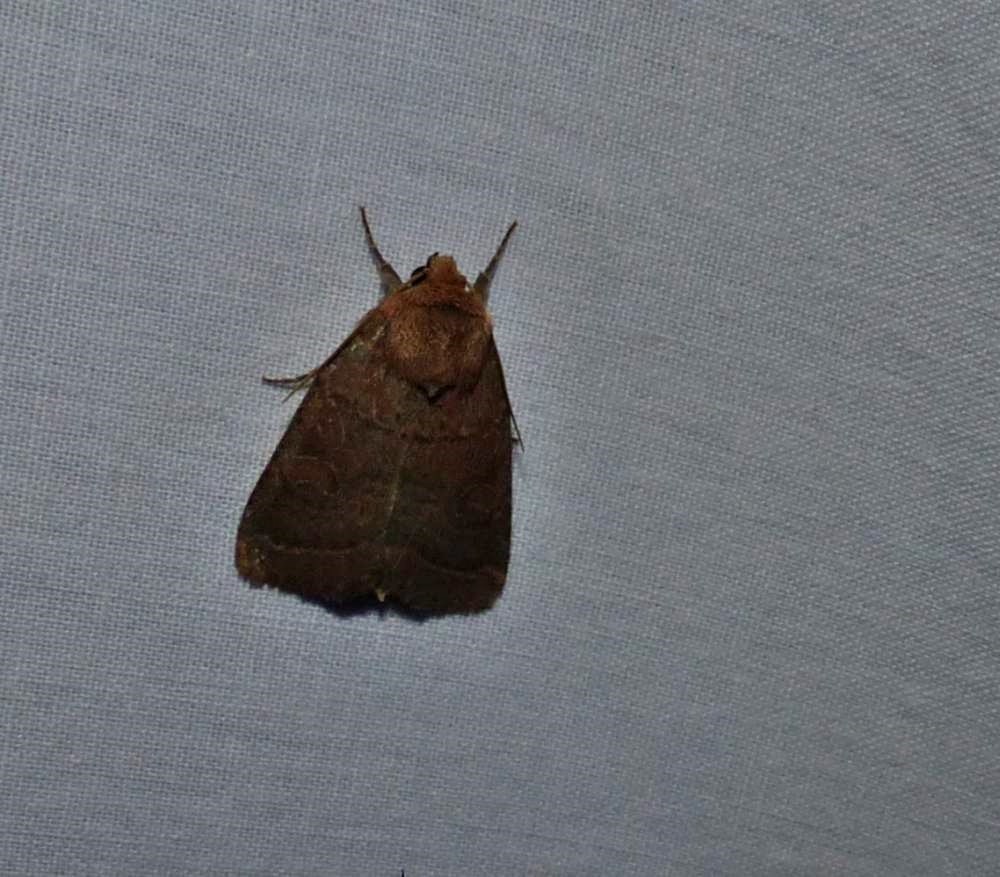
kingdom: Animalia
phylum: Arthropoda
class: Insecta
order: Lepidoptera
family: Noctuidae
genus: Trichopolia
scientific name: Trichopolia
